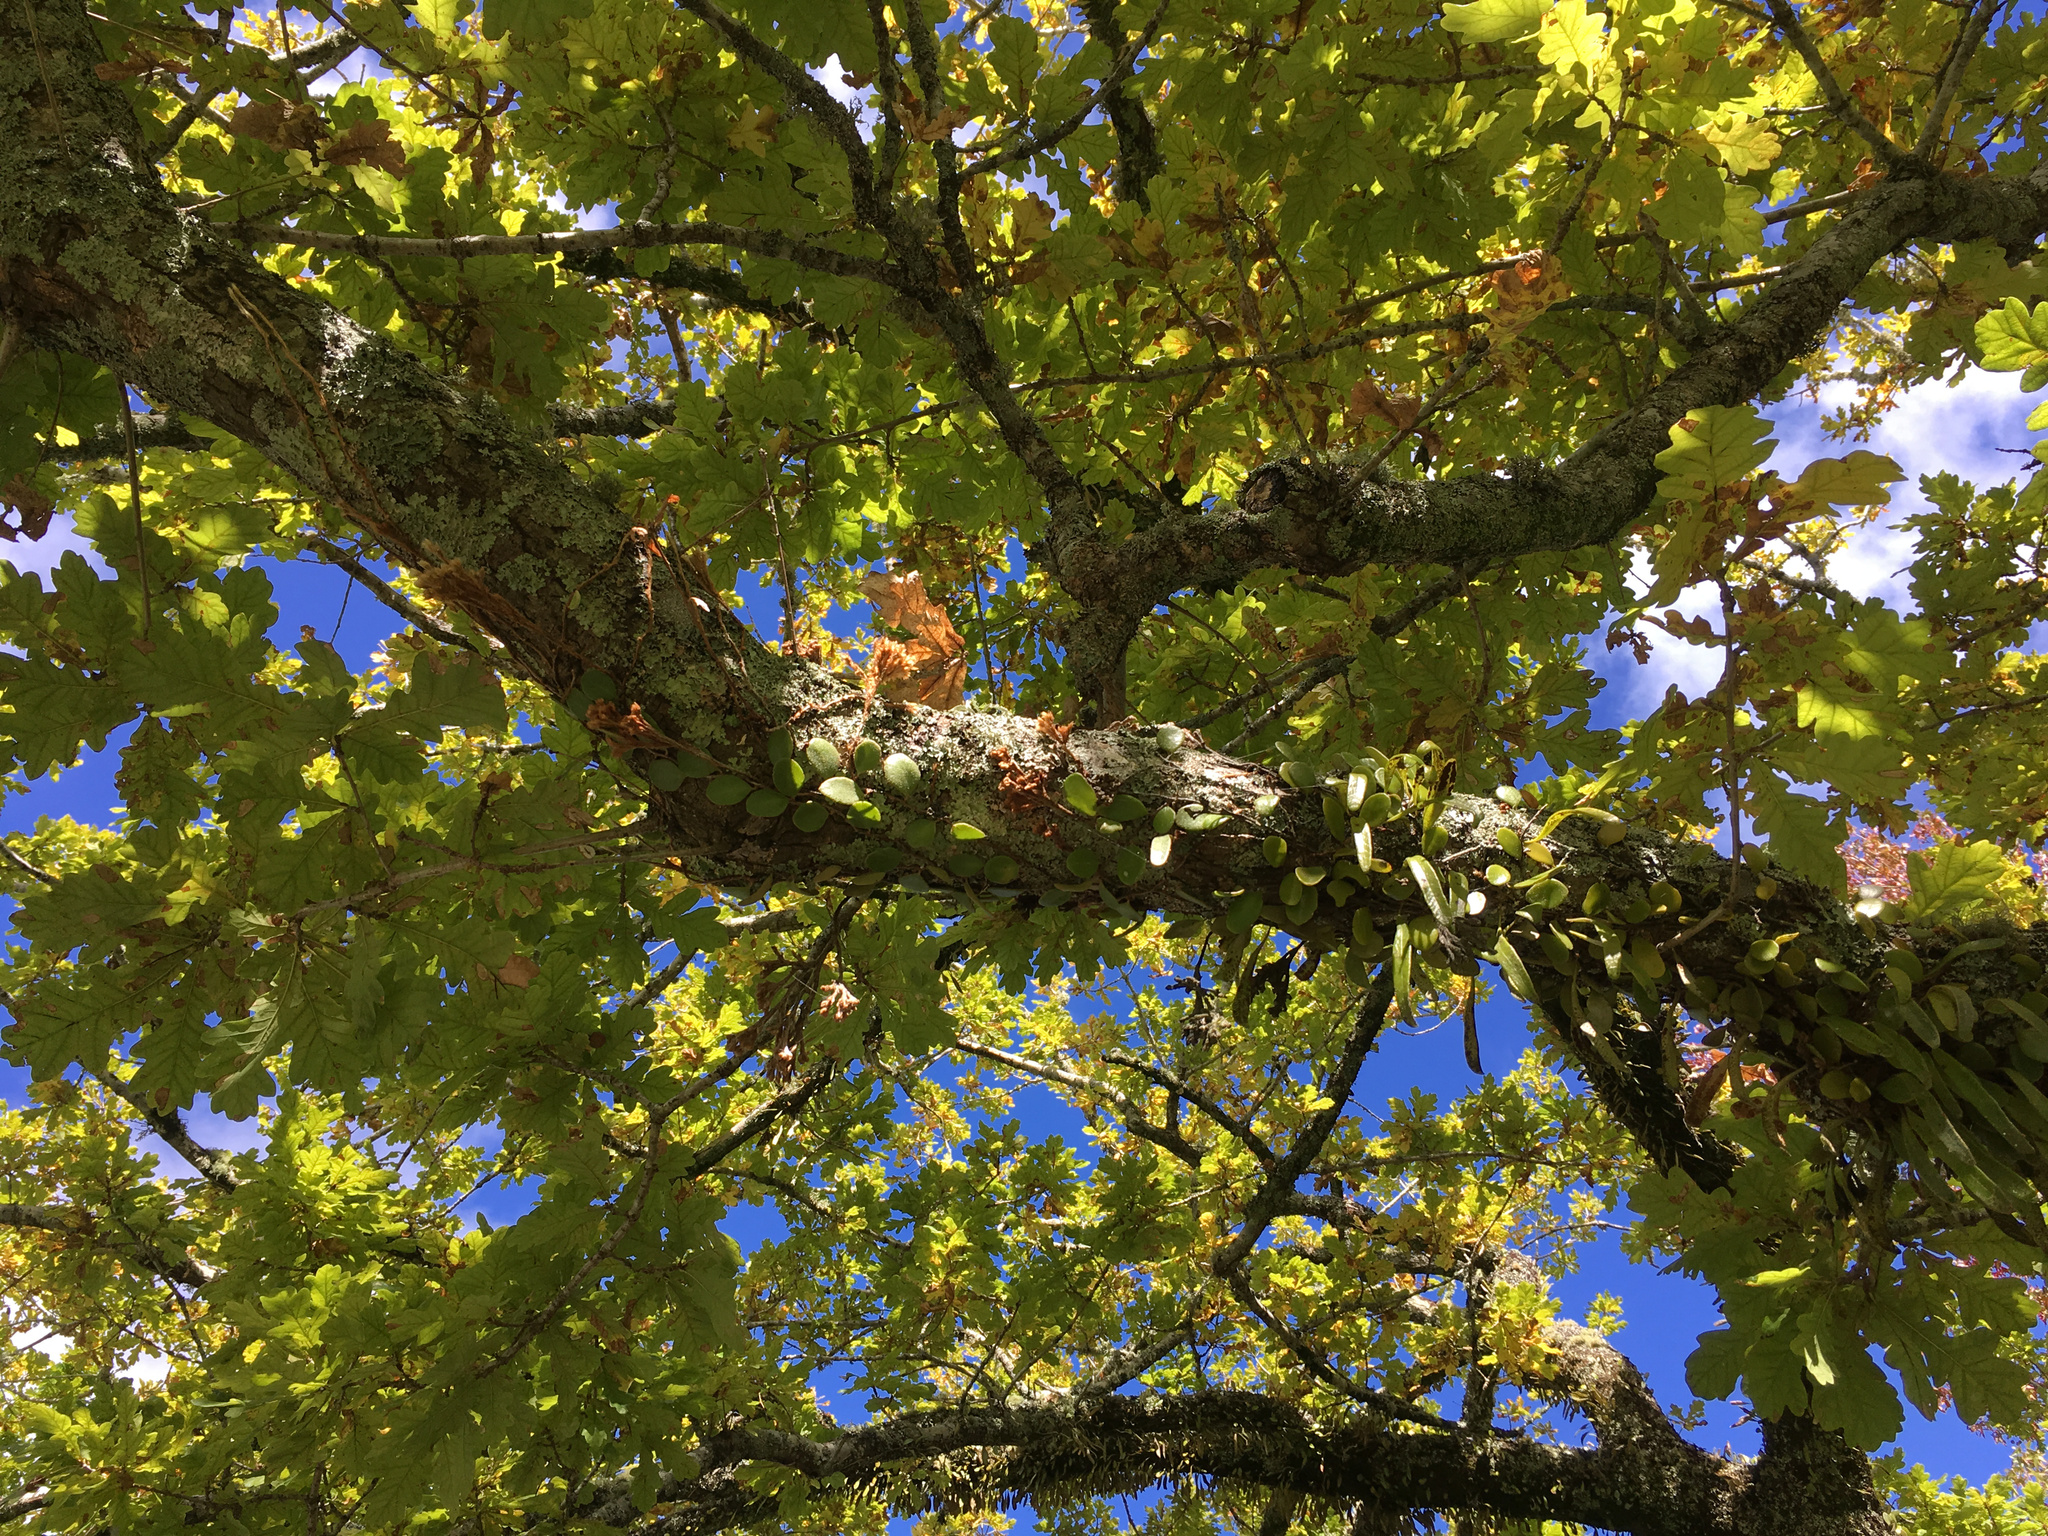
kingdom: Plantae
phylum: Tracheophyta
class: Polypodiopsida
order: Polypodiales
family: Polypodiaceae
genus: Pyrrosia
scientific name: Pyrrosia eleagnifolia
